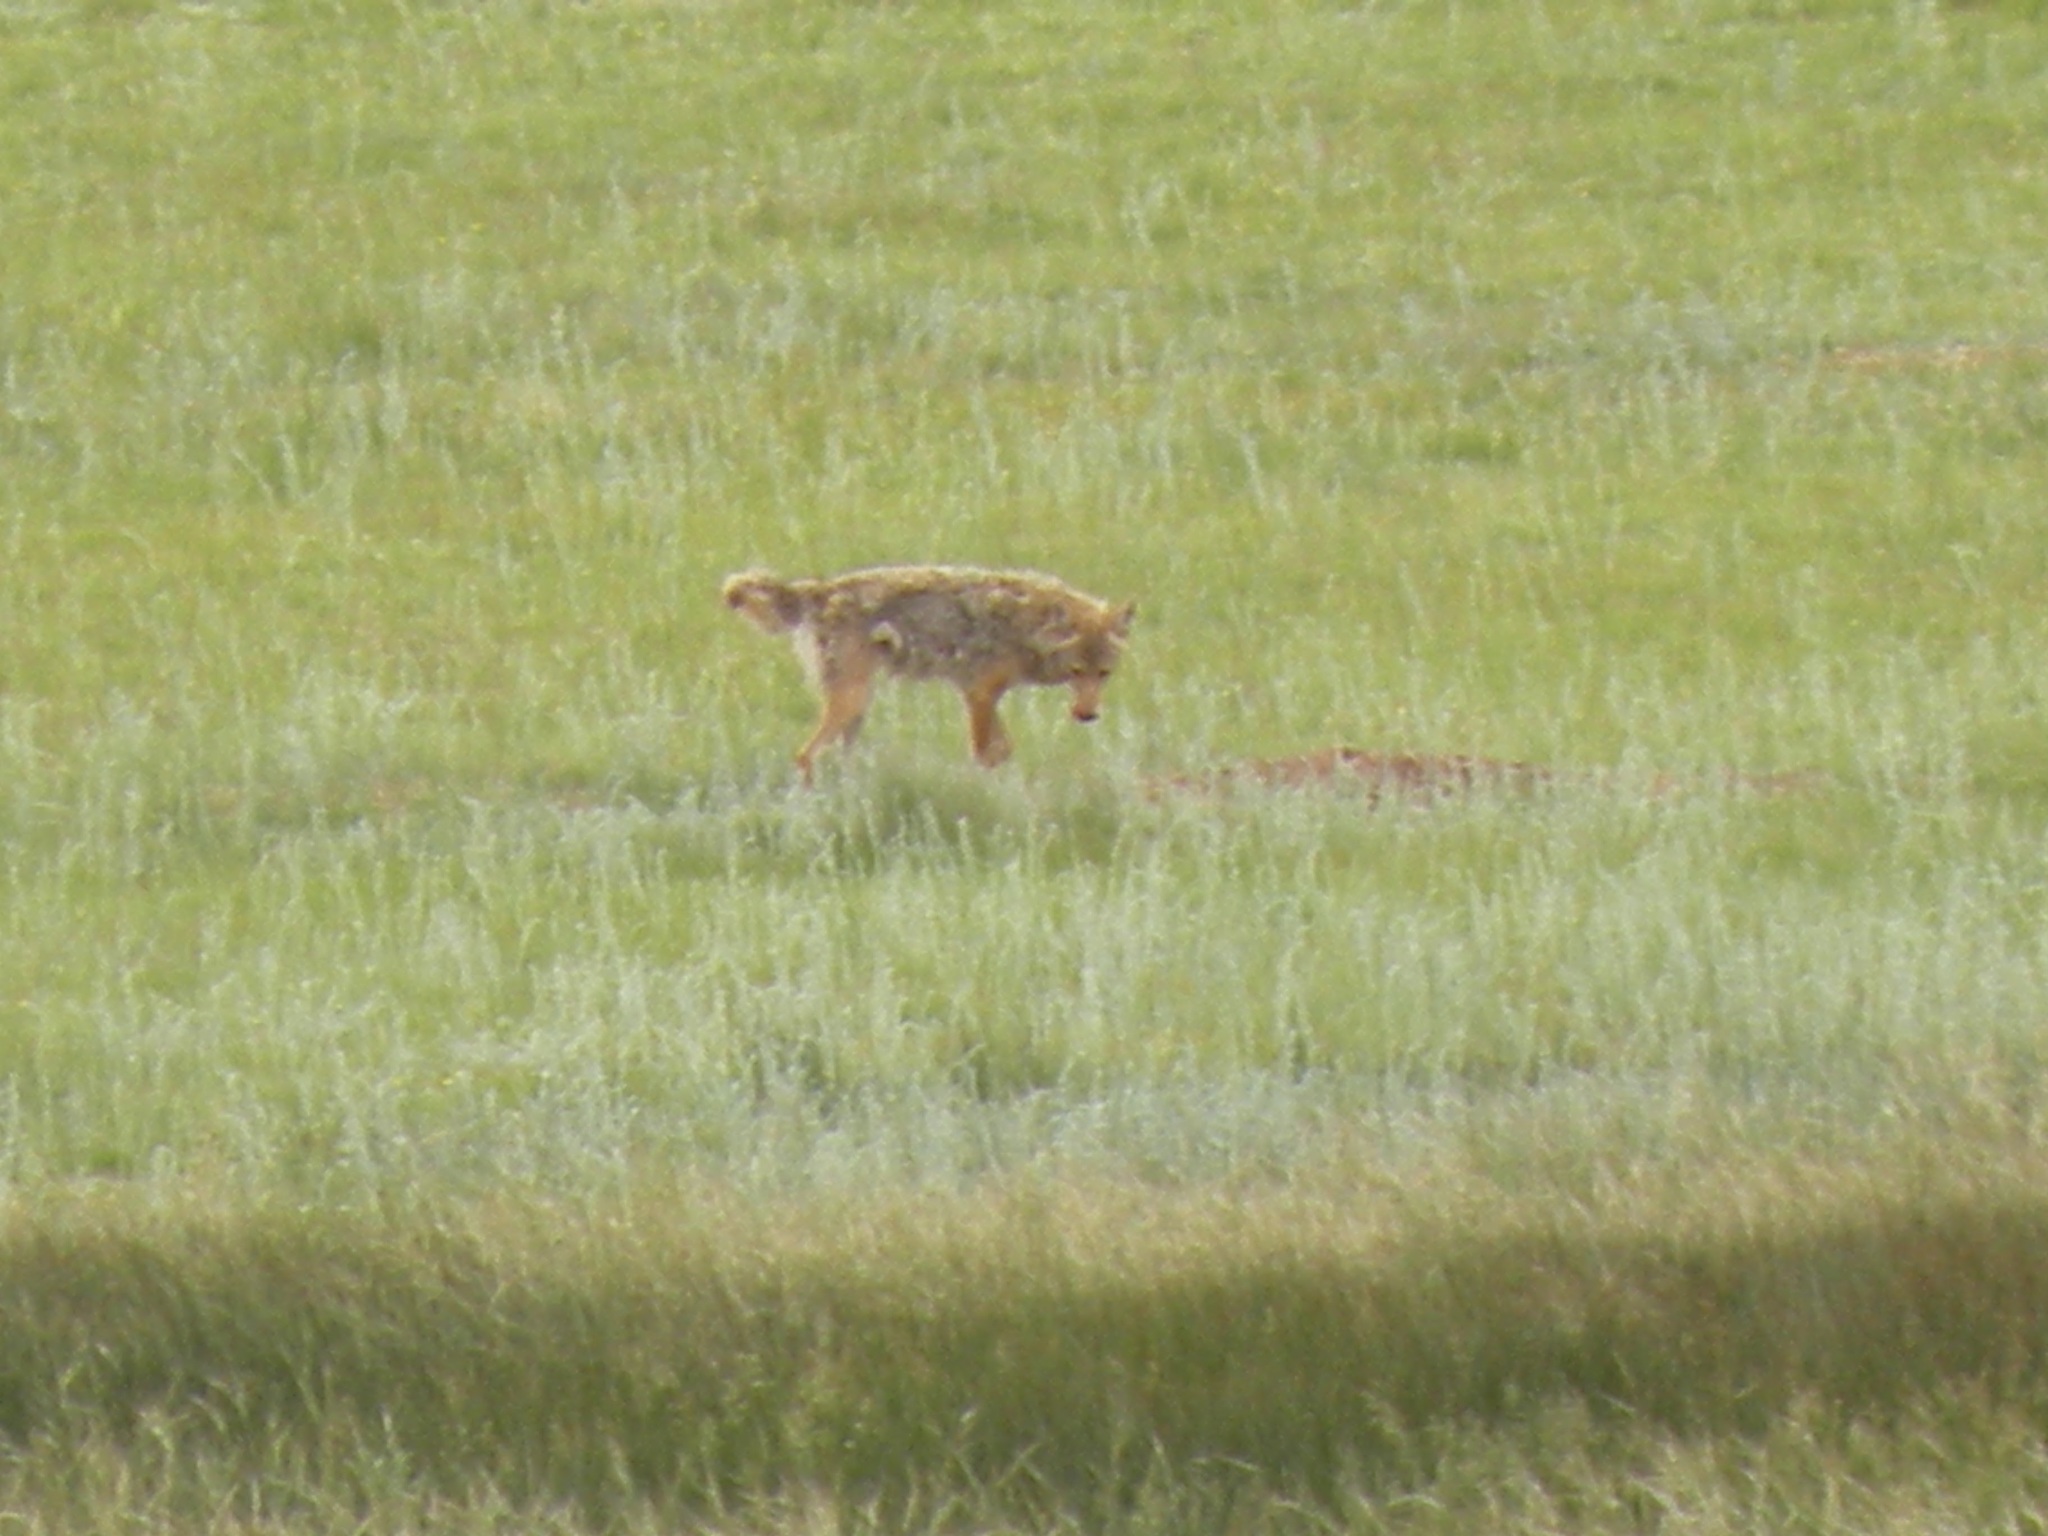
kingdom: Animalia
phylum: Chordata
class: Mammalia
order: Carnivora
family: Canidae
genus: Canis
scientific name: Canis latrans
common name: Coyote
